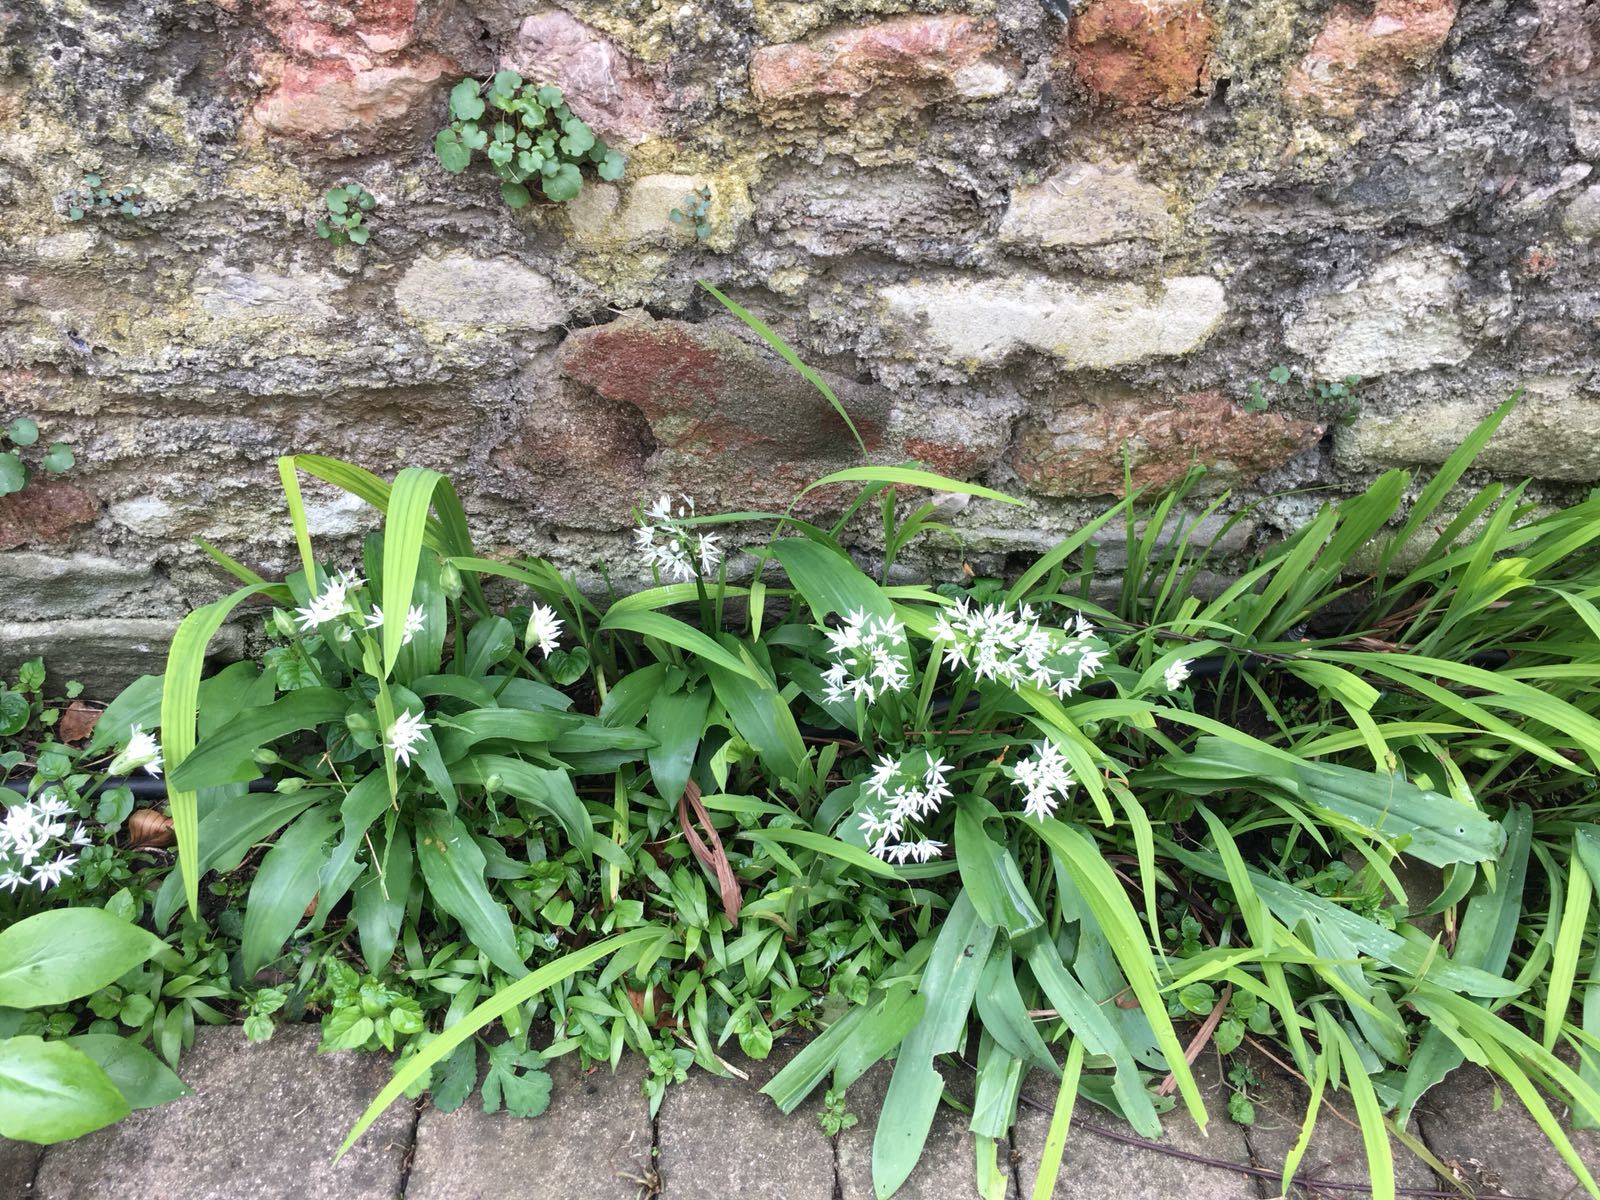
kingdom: Plantae
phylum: Tracheophyta
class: Liliopsida
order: Asparagales
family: Amaryllidaceae
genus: Allium
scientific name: Allium ursinum
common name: Ramsons
